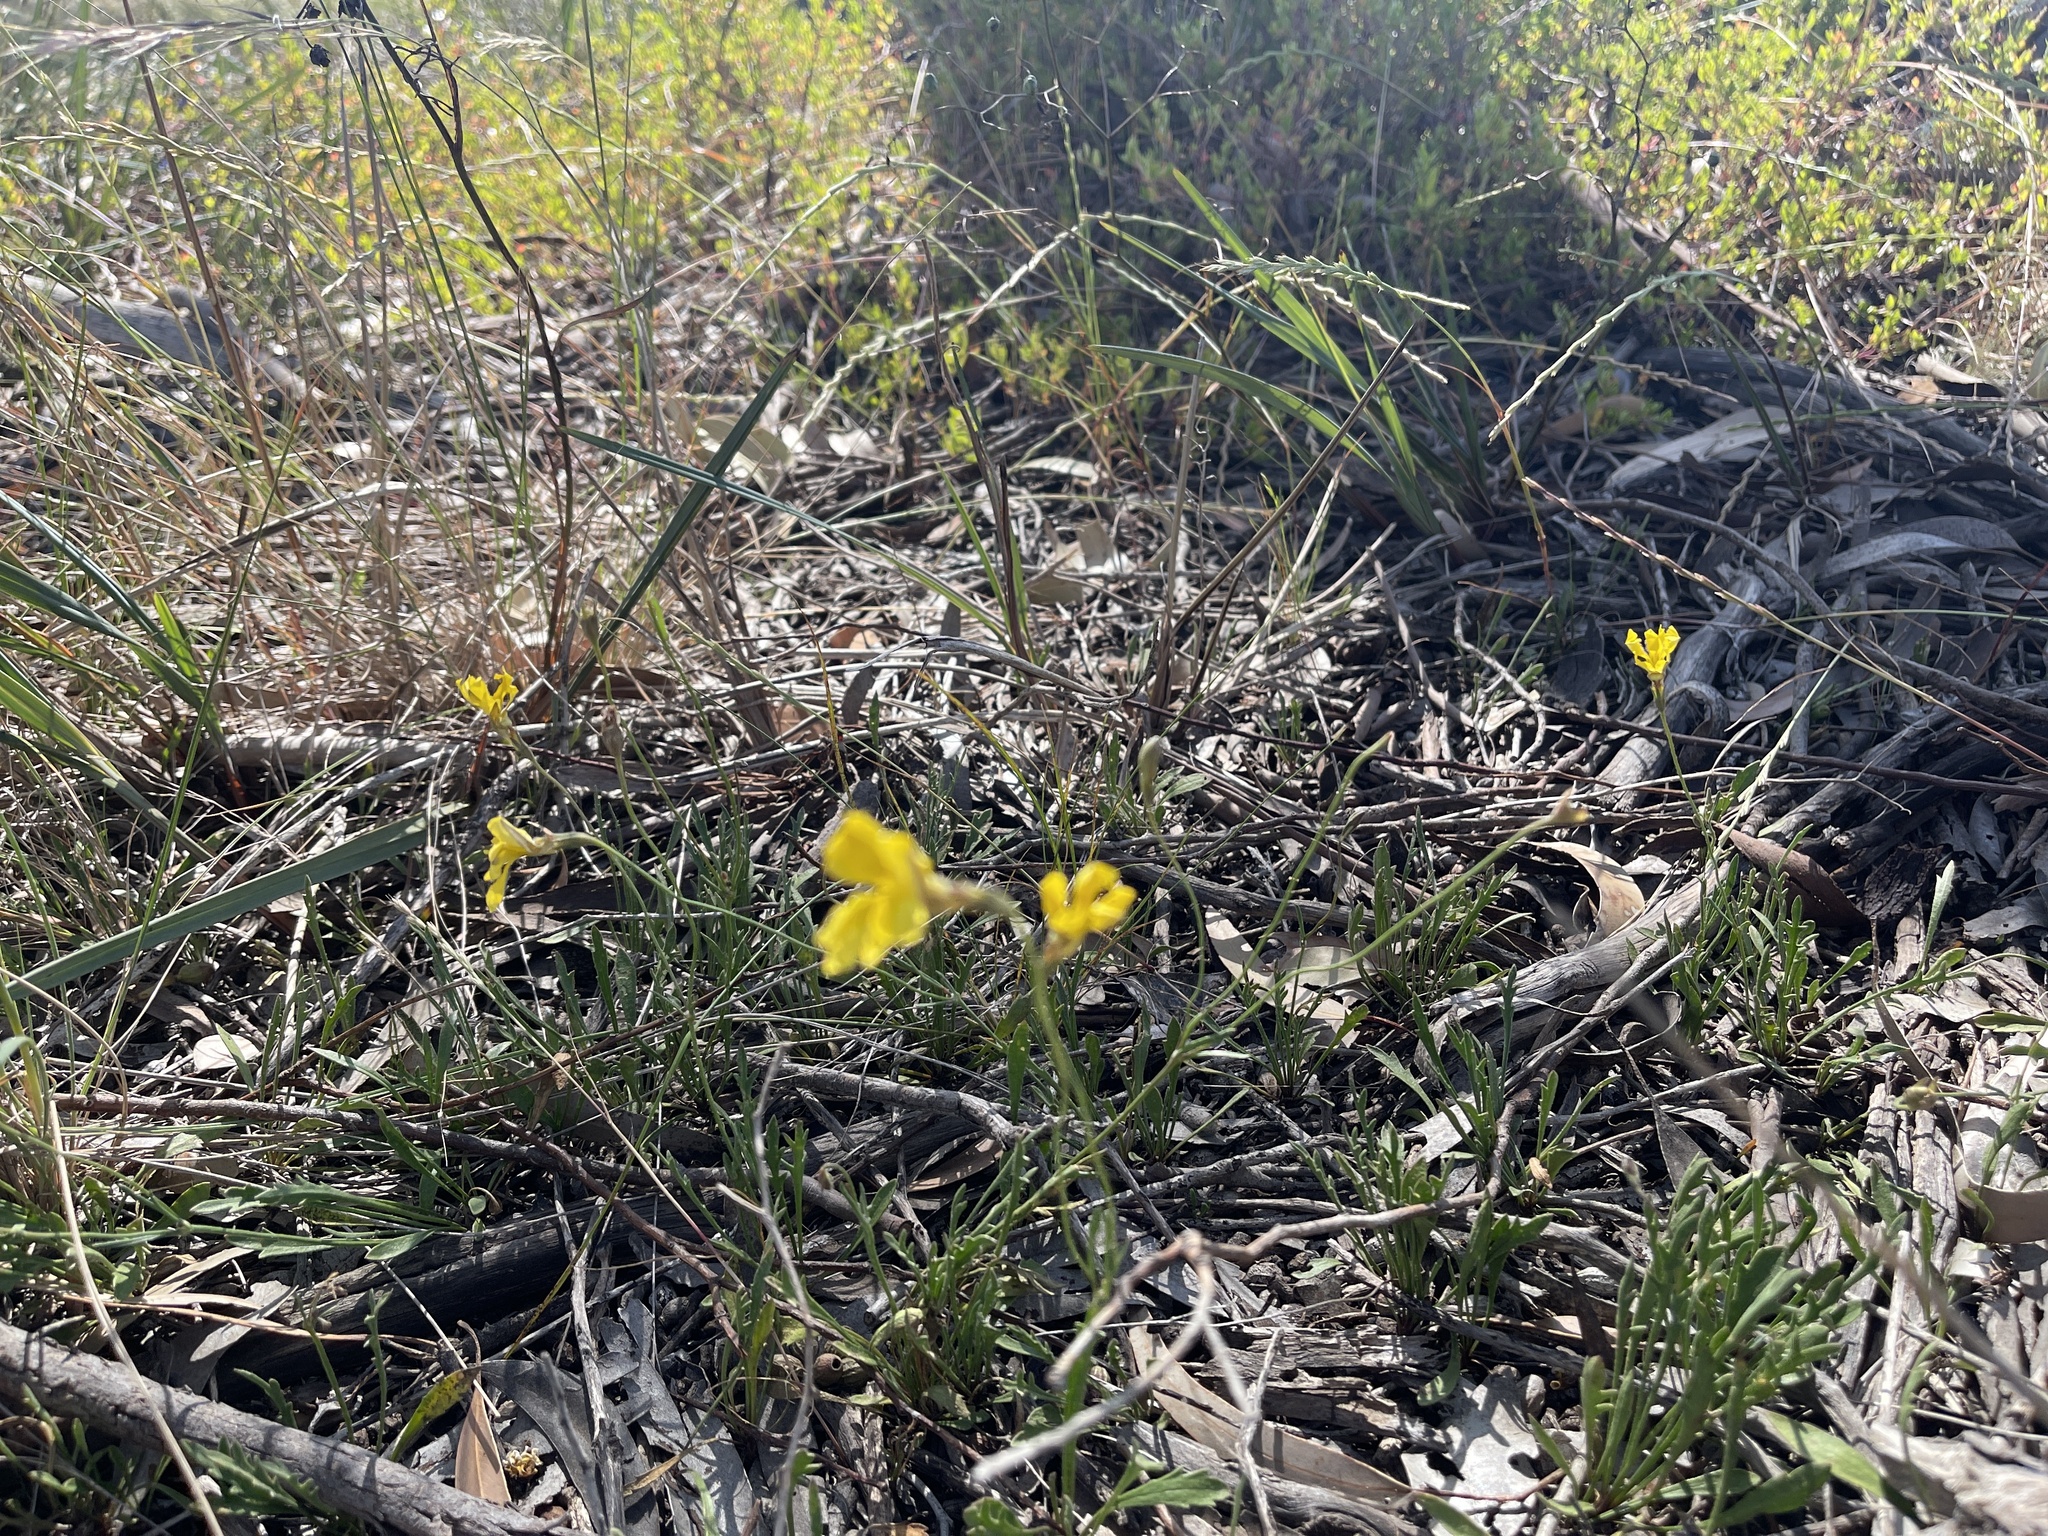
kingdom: Plantae
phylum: Tracheophyta
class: Magnoliopsida
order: Asterales
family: Goodeniaceae
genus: Goodenia
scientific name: Goodenia pinnatifida
